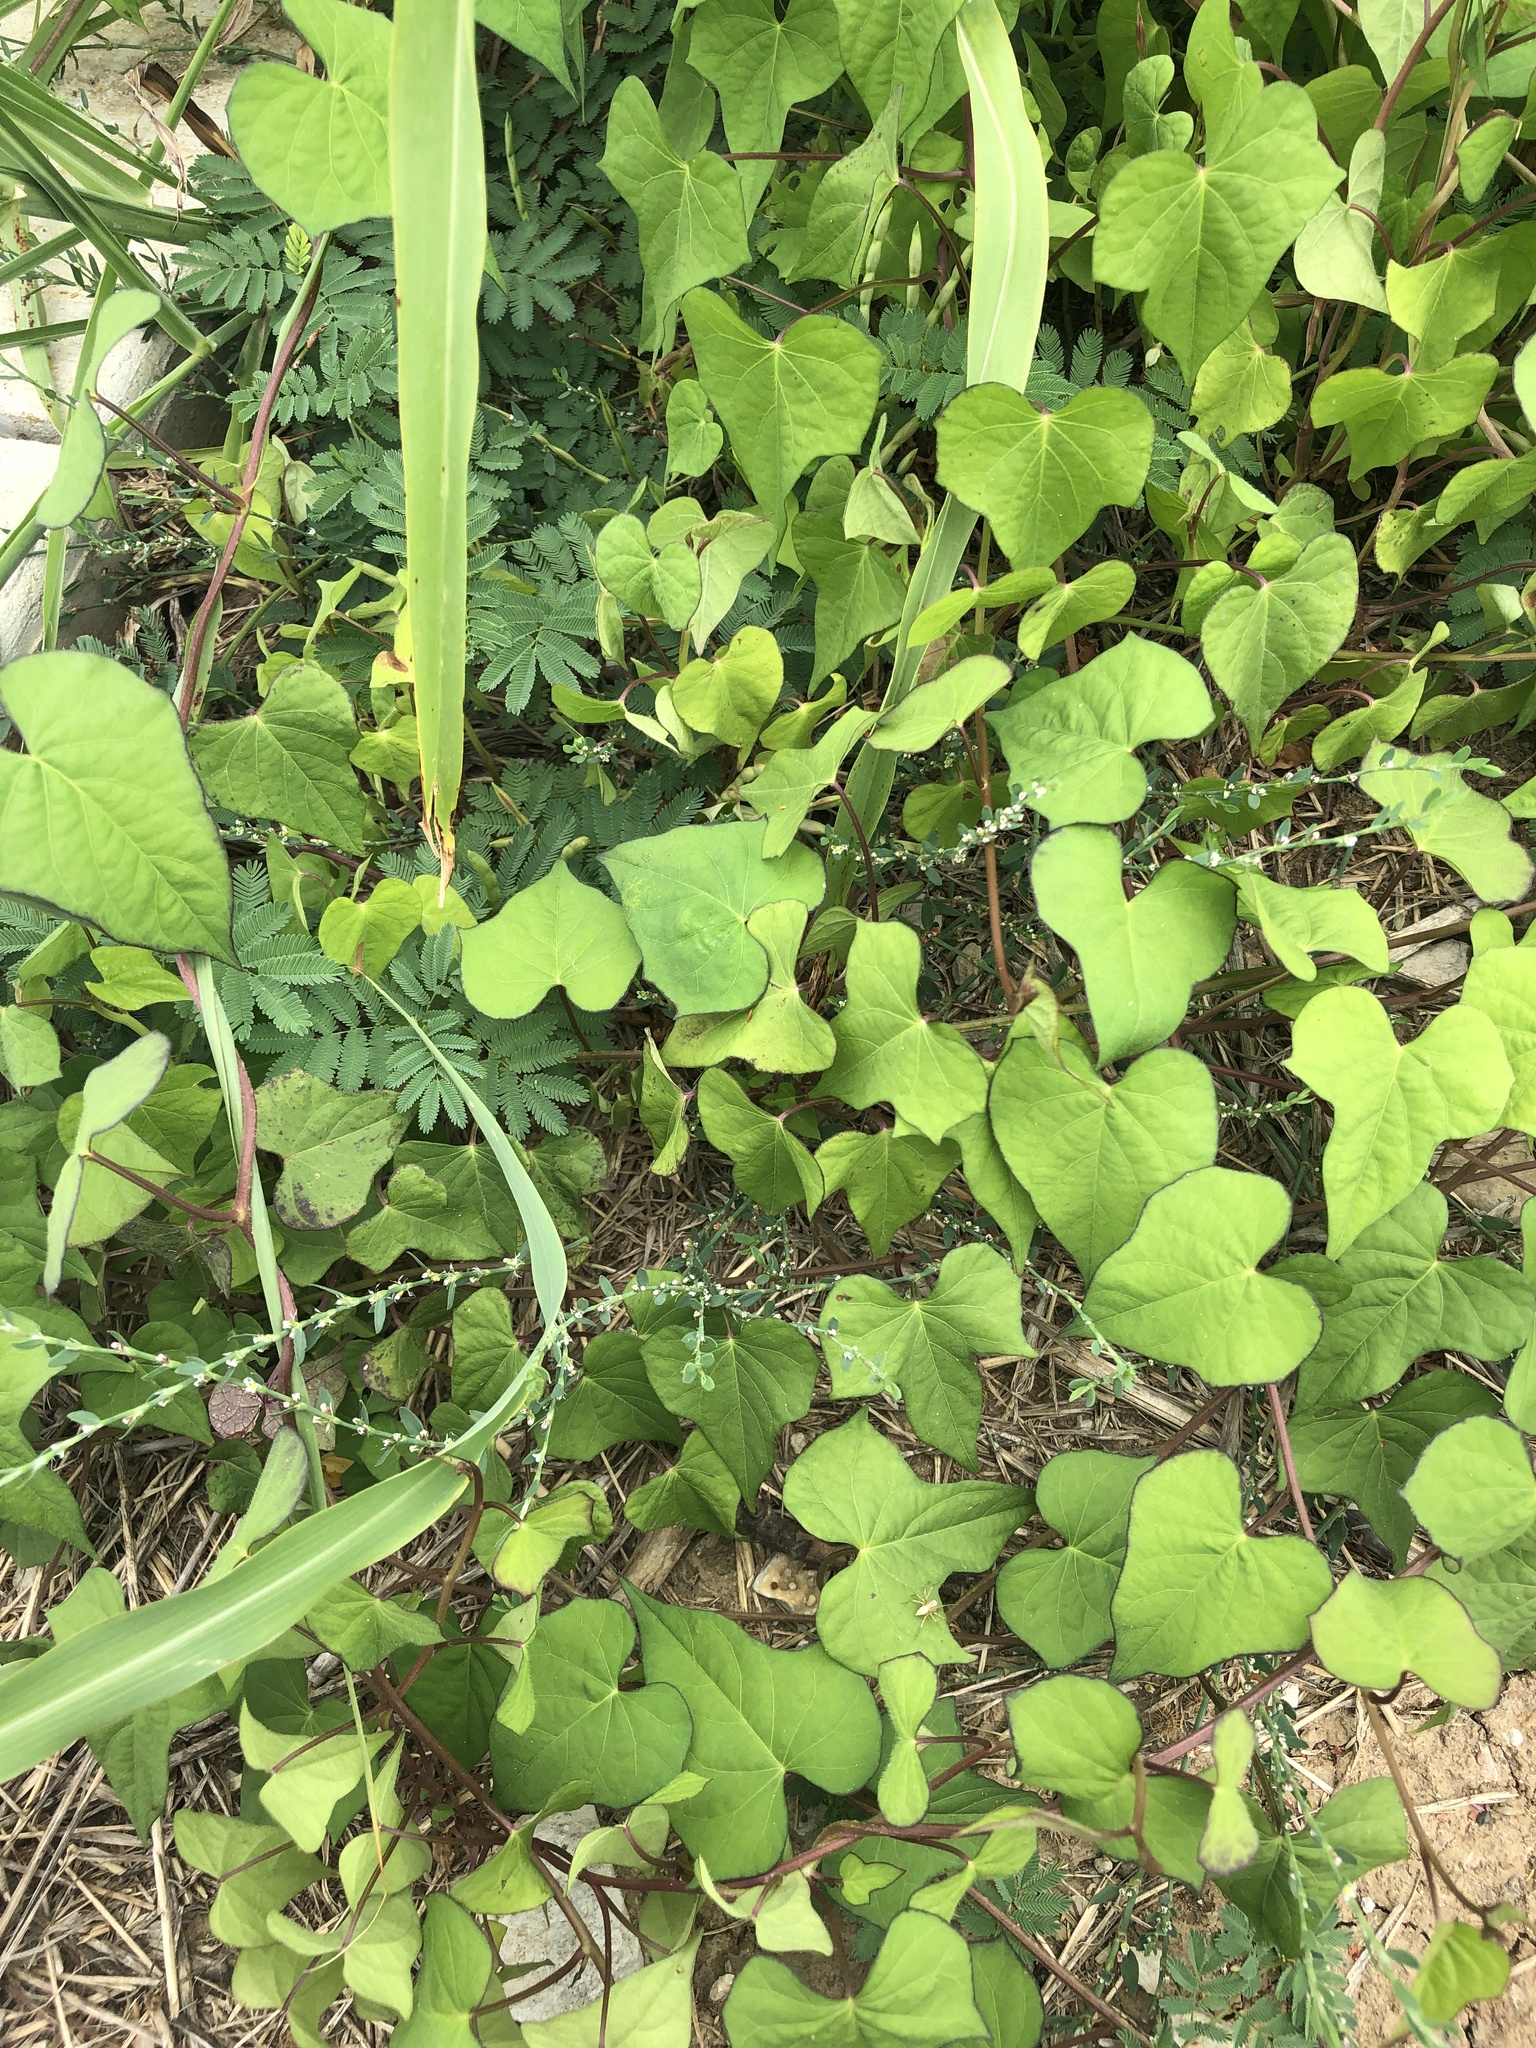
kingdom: Plantae
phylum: Tracheophyta
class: Magnoliopsida
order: Caryophyllales
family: Polygonaceae
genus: Polygonum
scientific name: Polygonum
